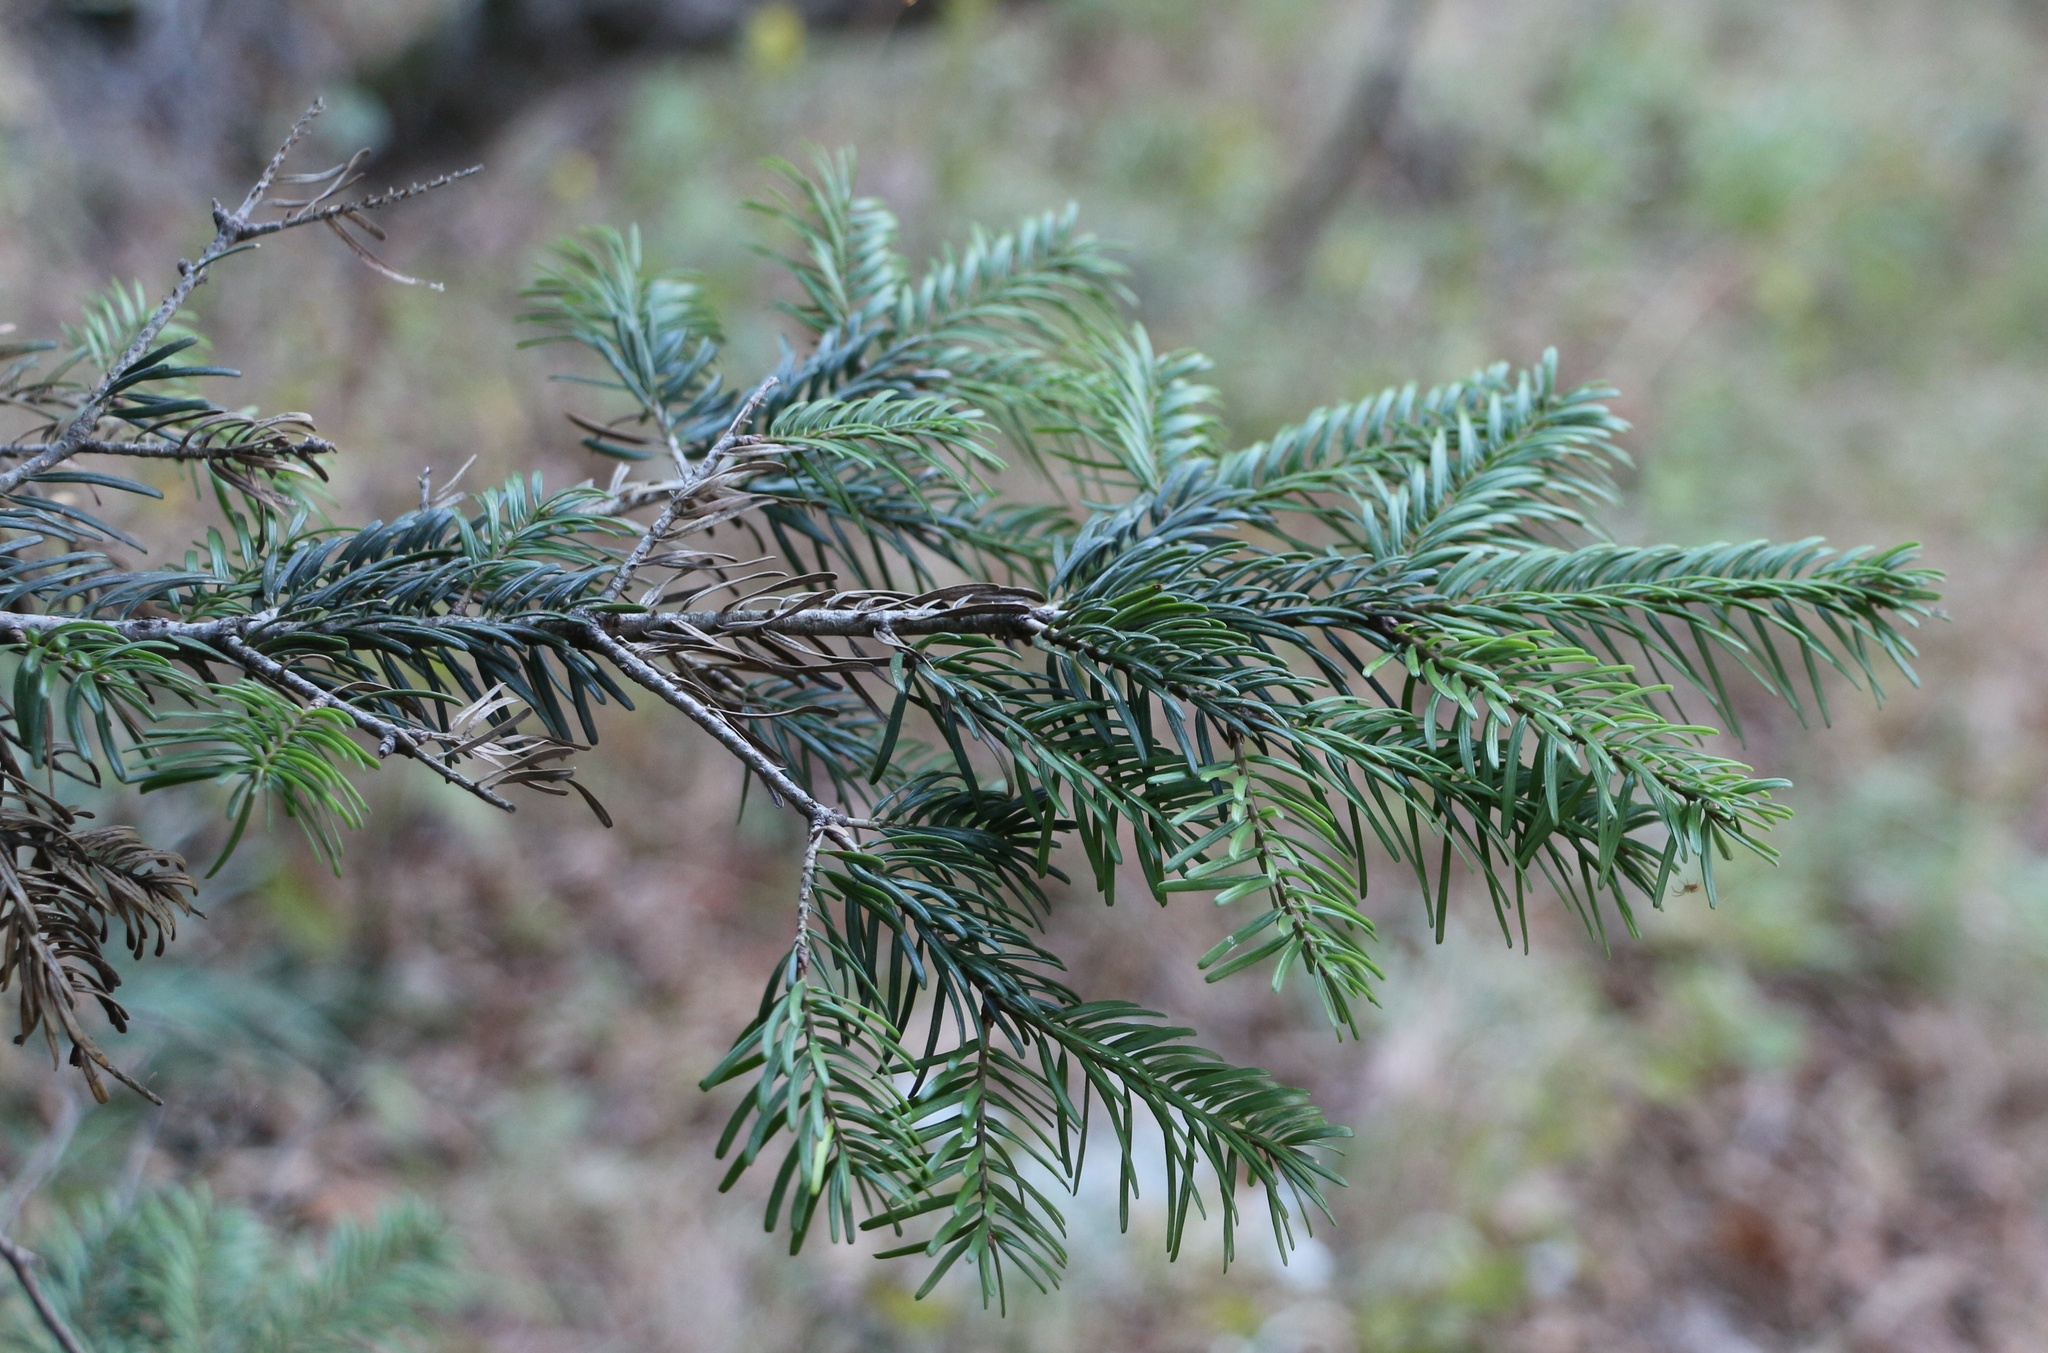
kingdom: Plantae
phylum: Tracheophyta
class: Pinopsida
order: Pinales
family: Pinaceae
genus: Abies
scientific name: Abies nordmanniana
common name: Caucasian fir
